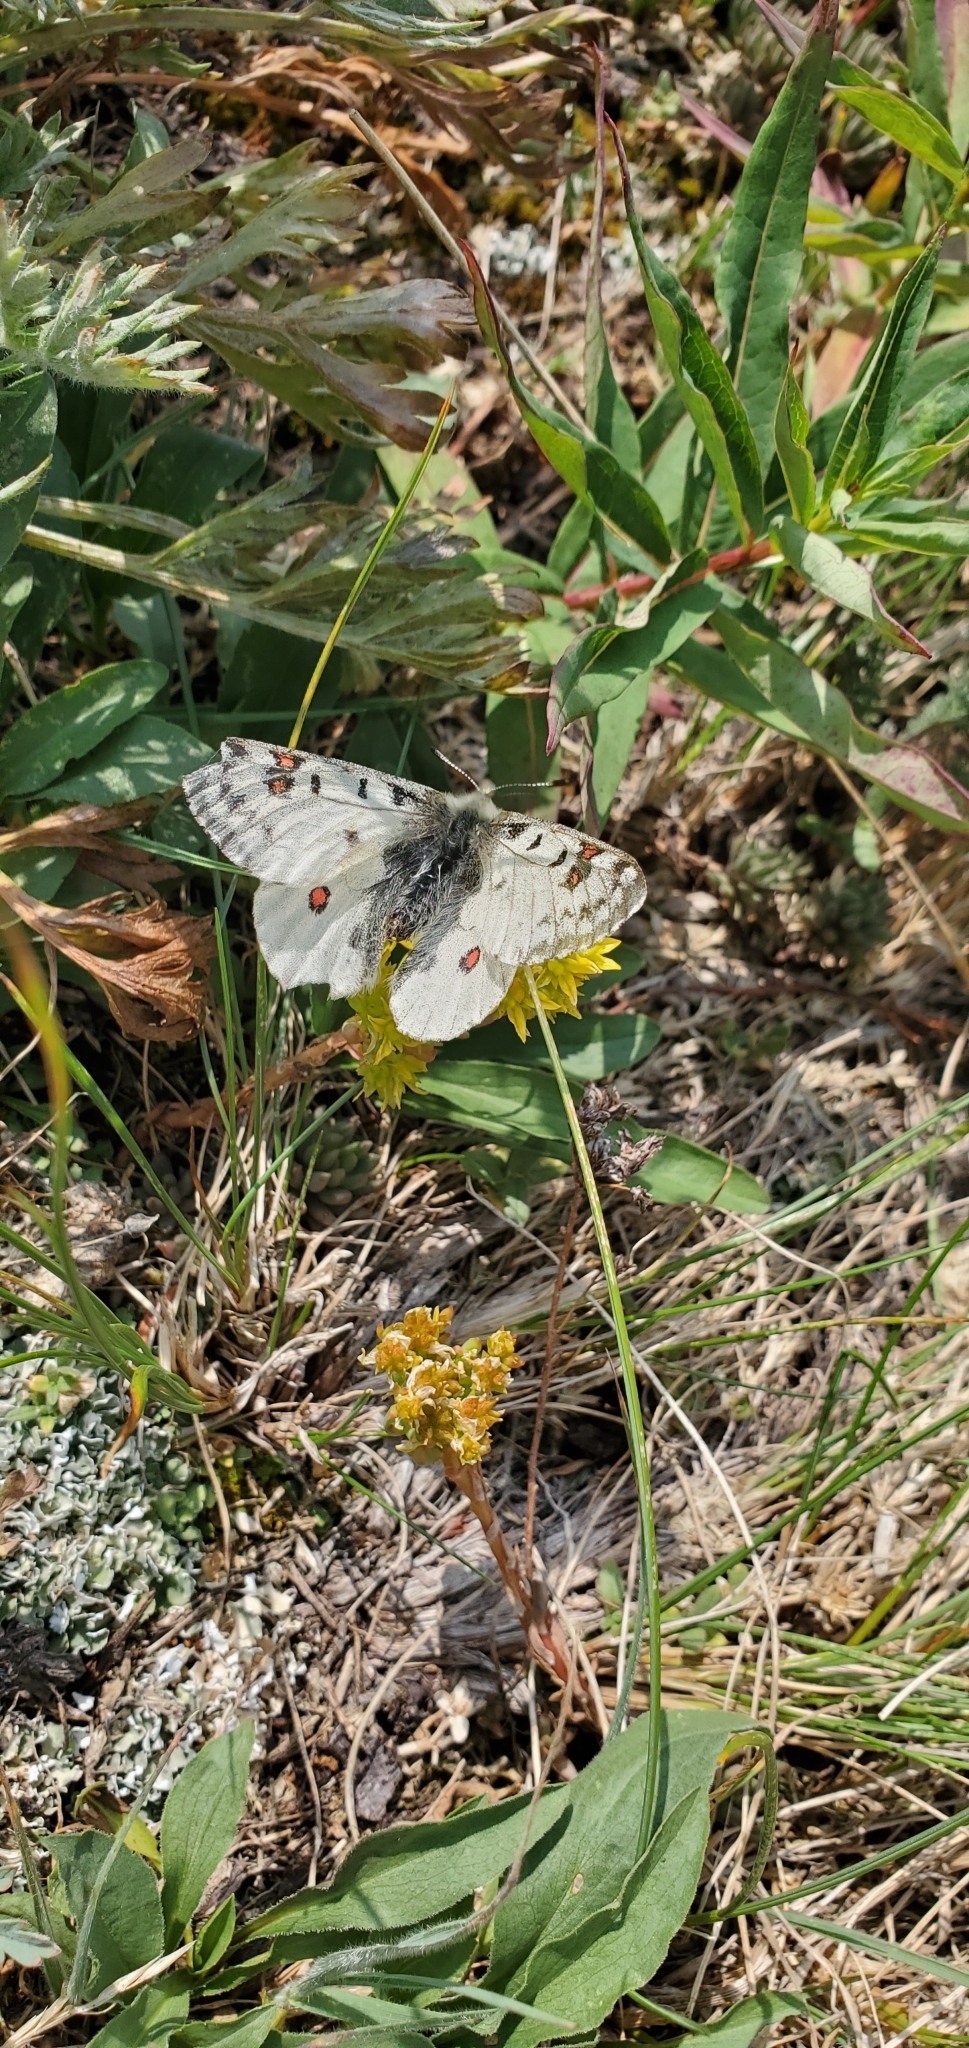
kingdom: Animalia
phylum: Arthropoda
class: Insecta
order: Lepidoptera
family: Papilionidae
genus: Parnassius
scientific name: Parnassius smintheus
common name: Mountain parnassian
